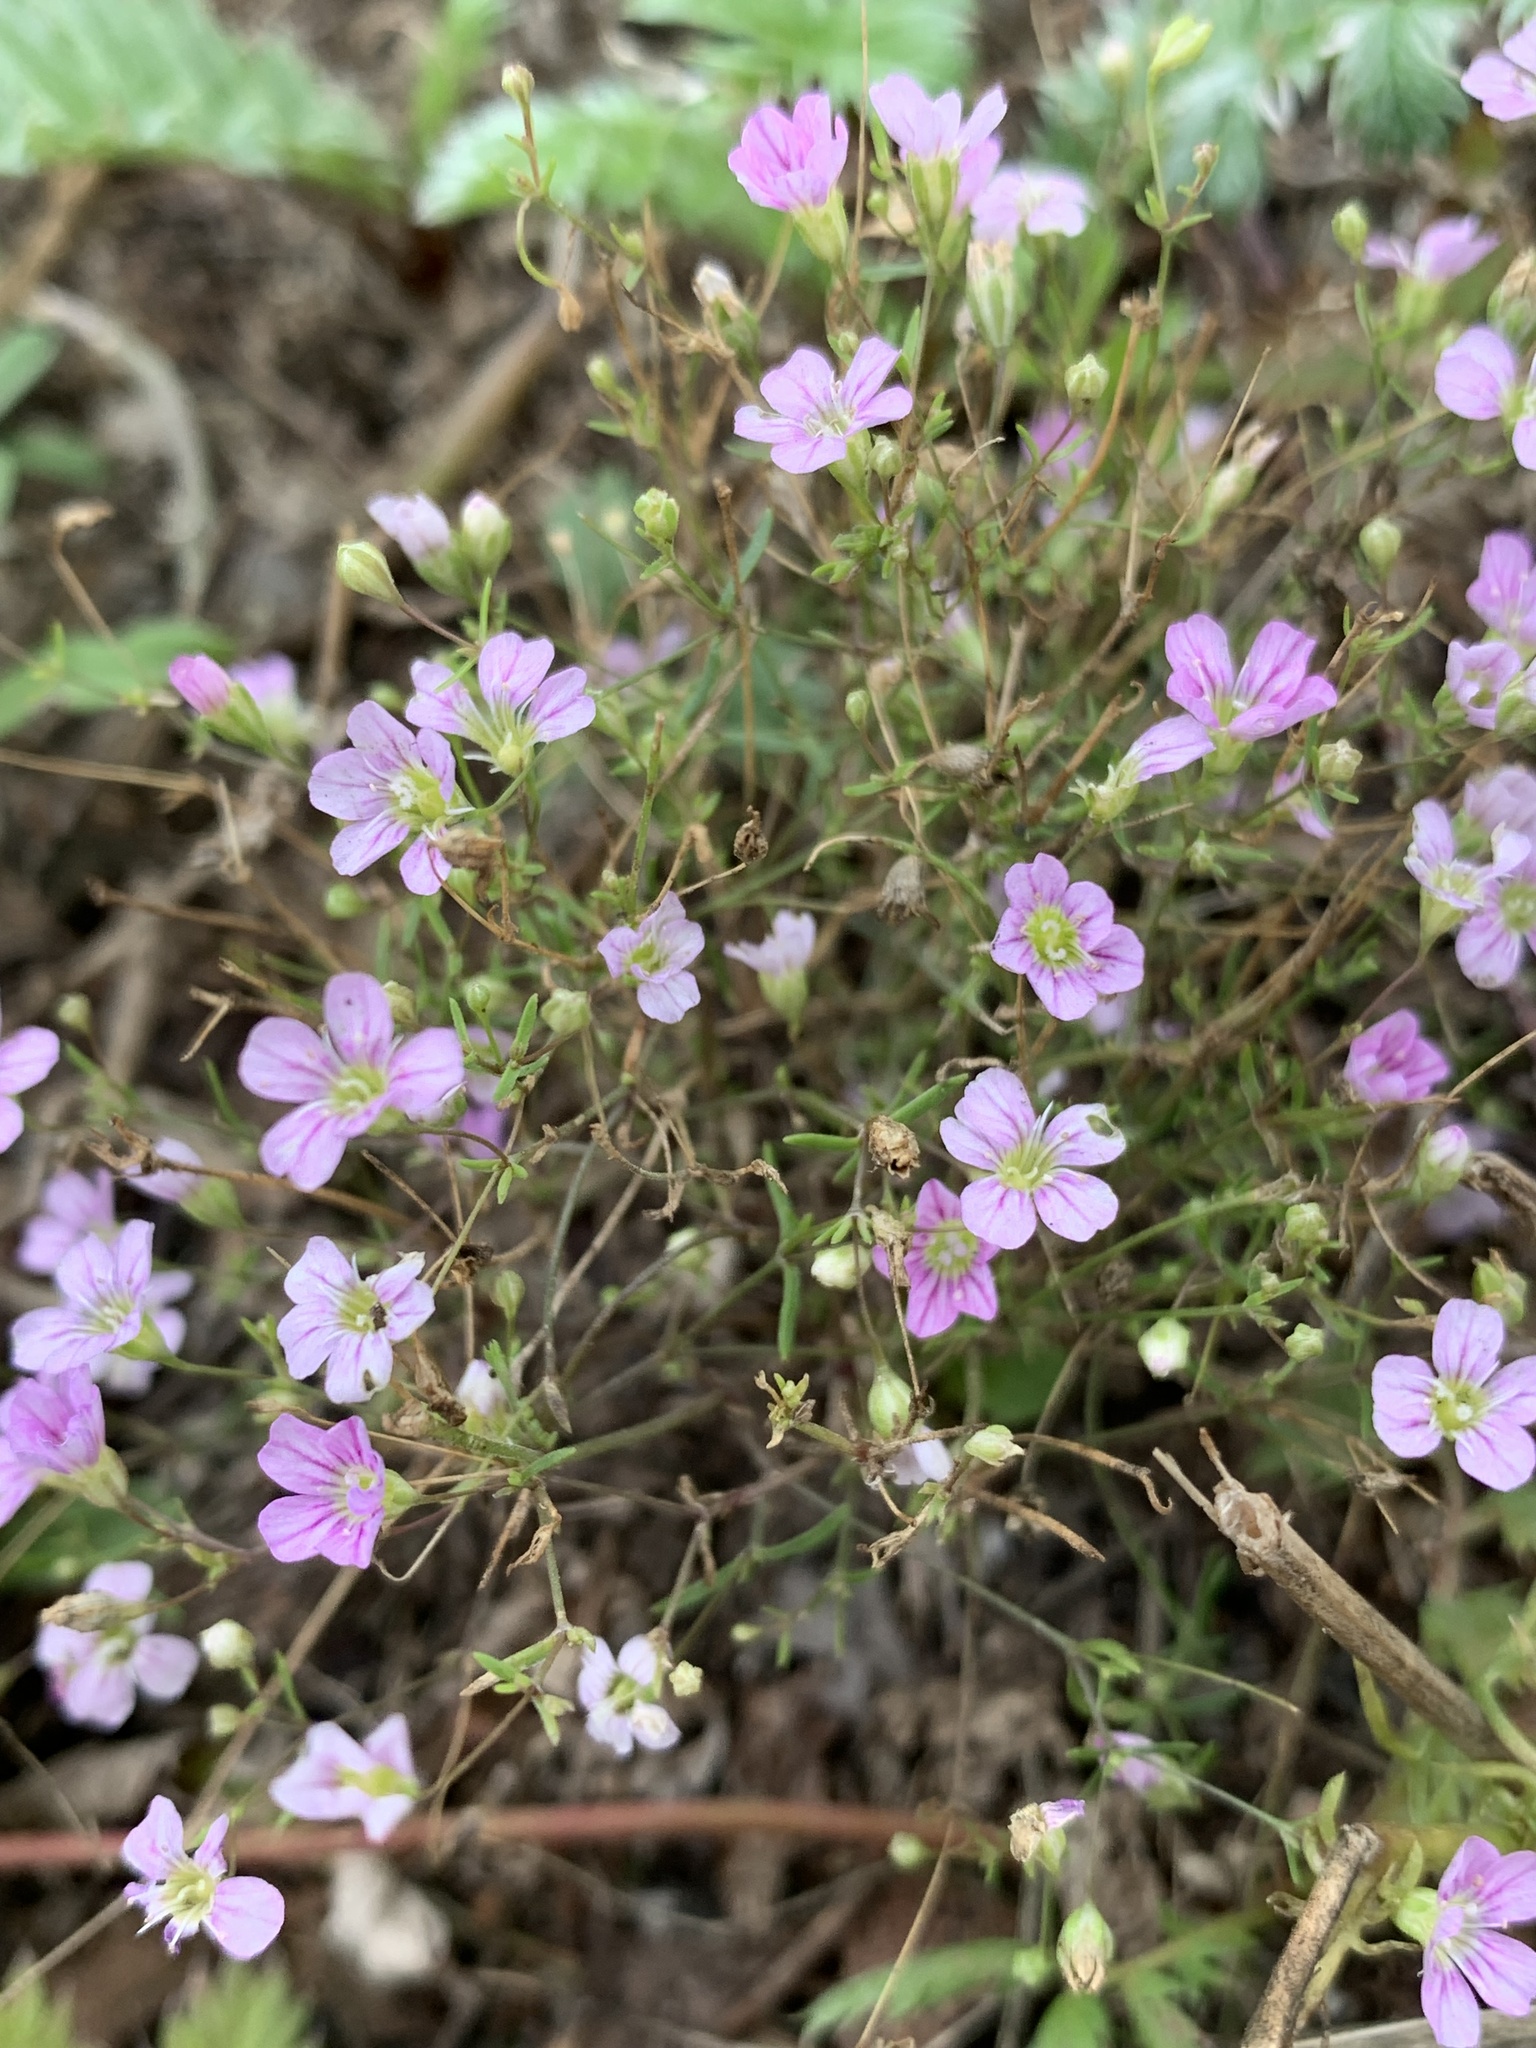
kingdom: Plantae
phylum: Tracheophyta
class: Magnoliopsida
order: Caryophyllales
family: Caryophyllaceae
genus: Psammophiliella
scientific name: Psammophiliella muralis
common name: Cushion baby's-breath
